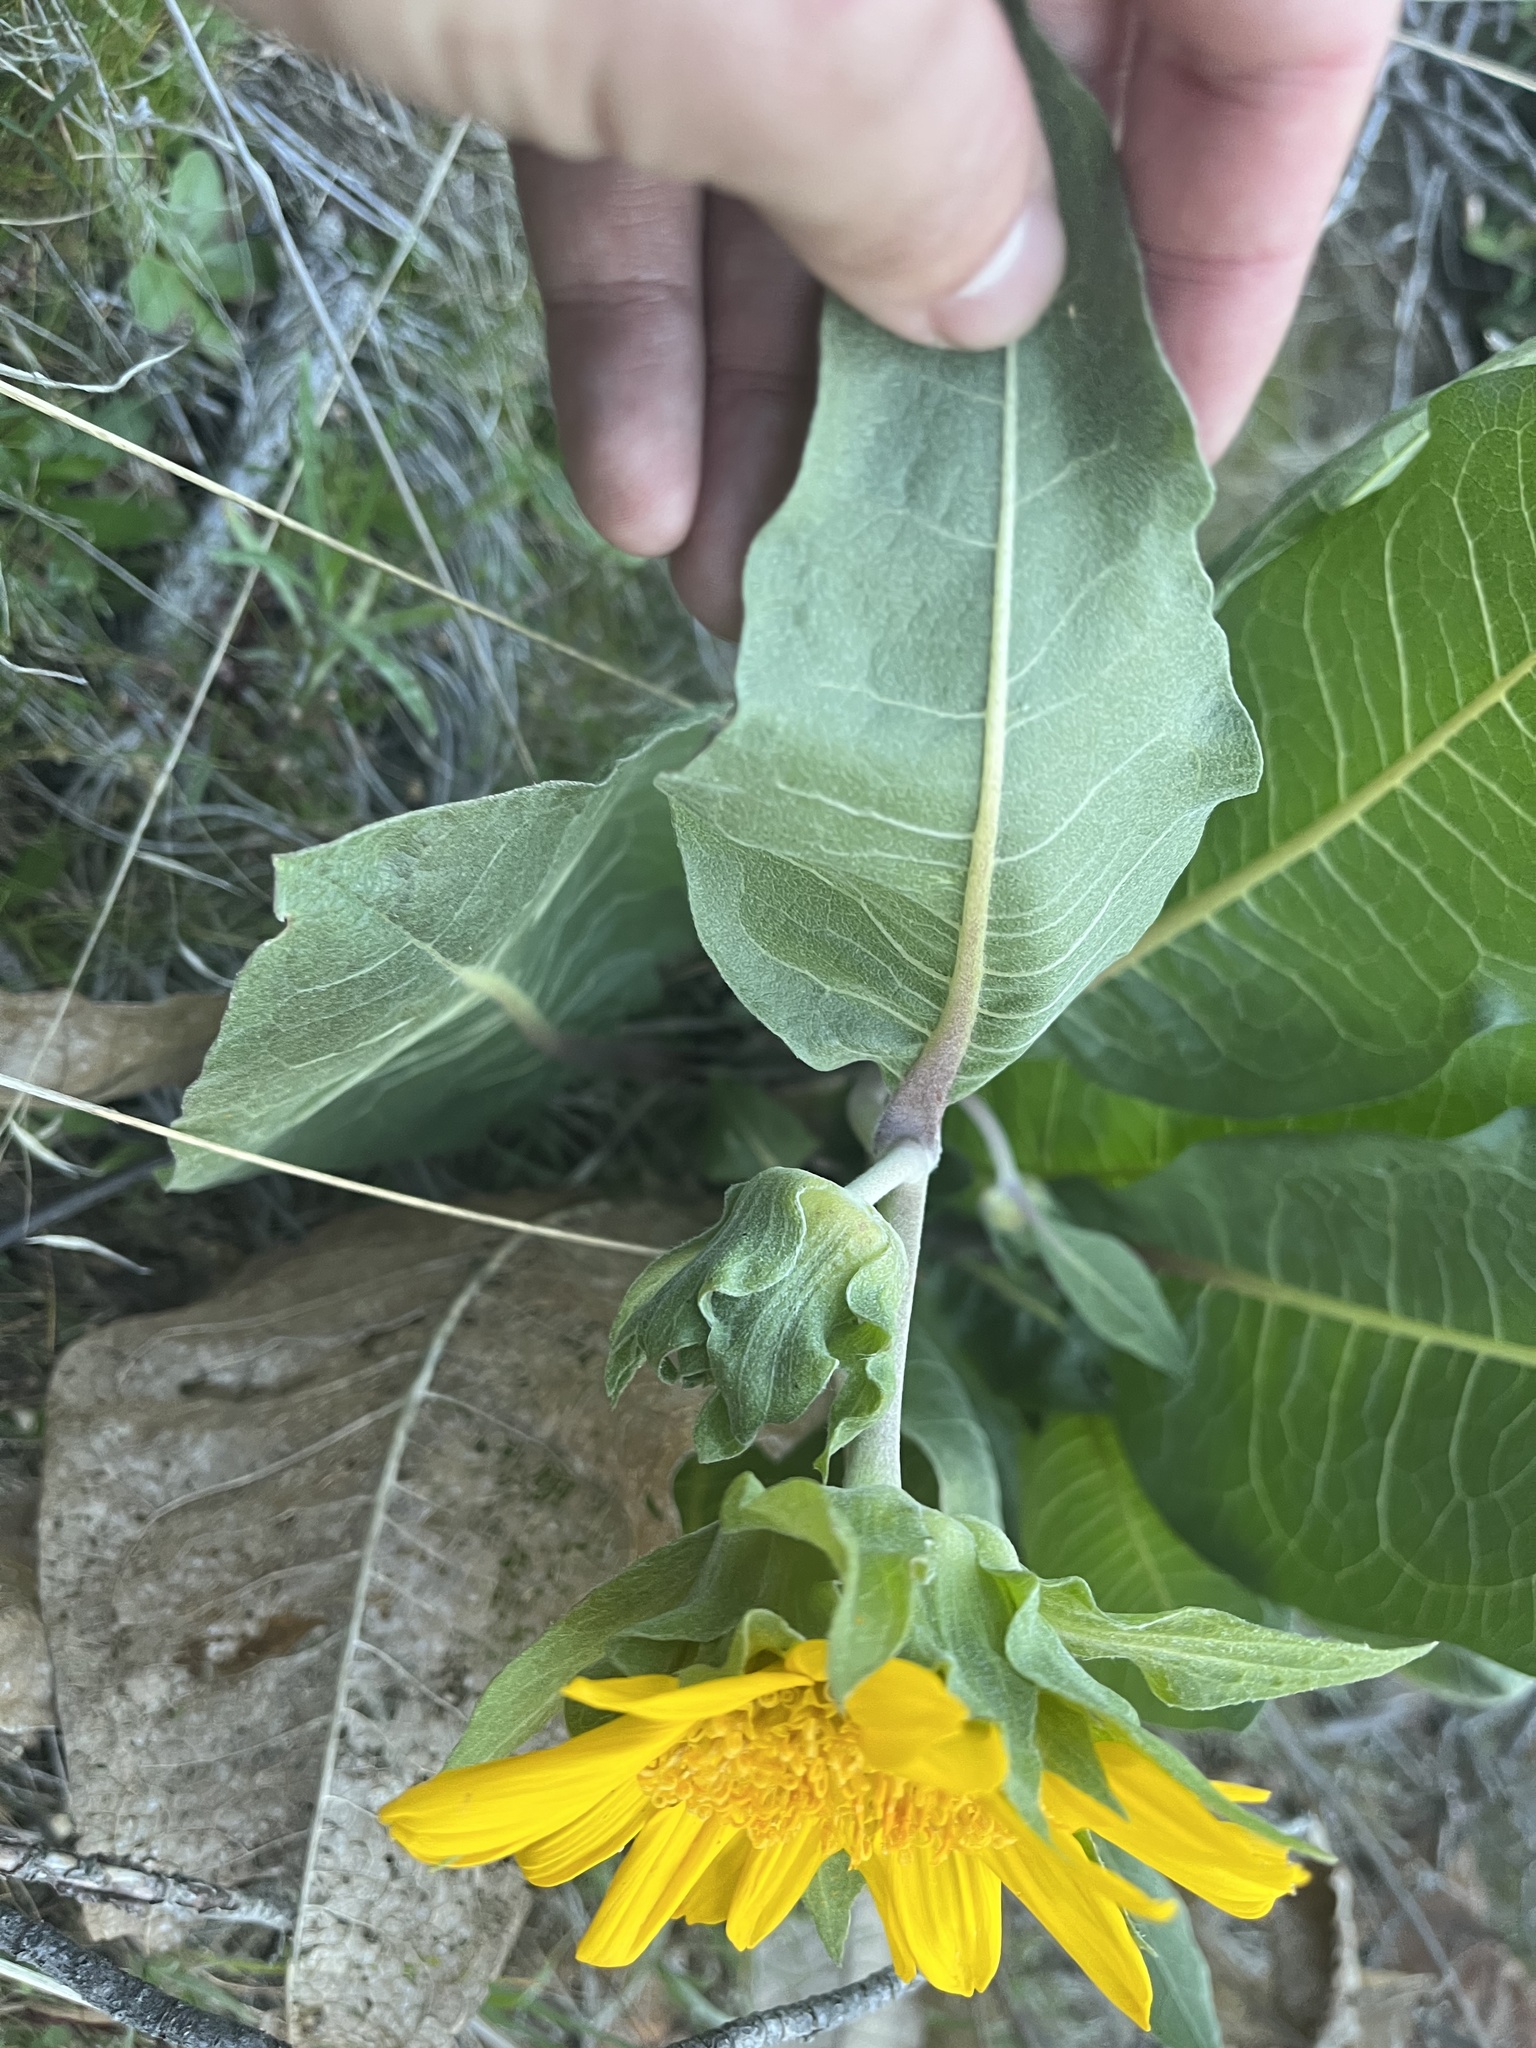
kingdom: Plantae
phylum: Tracheophyta
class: Magnoliopsida
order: Asterales
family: Asteraceae
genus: Wyethia
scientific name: Wyethia glabra
